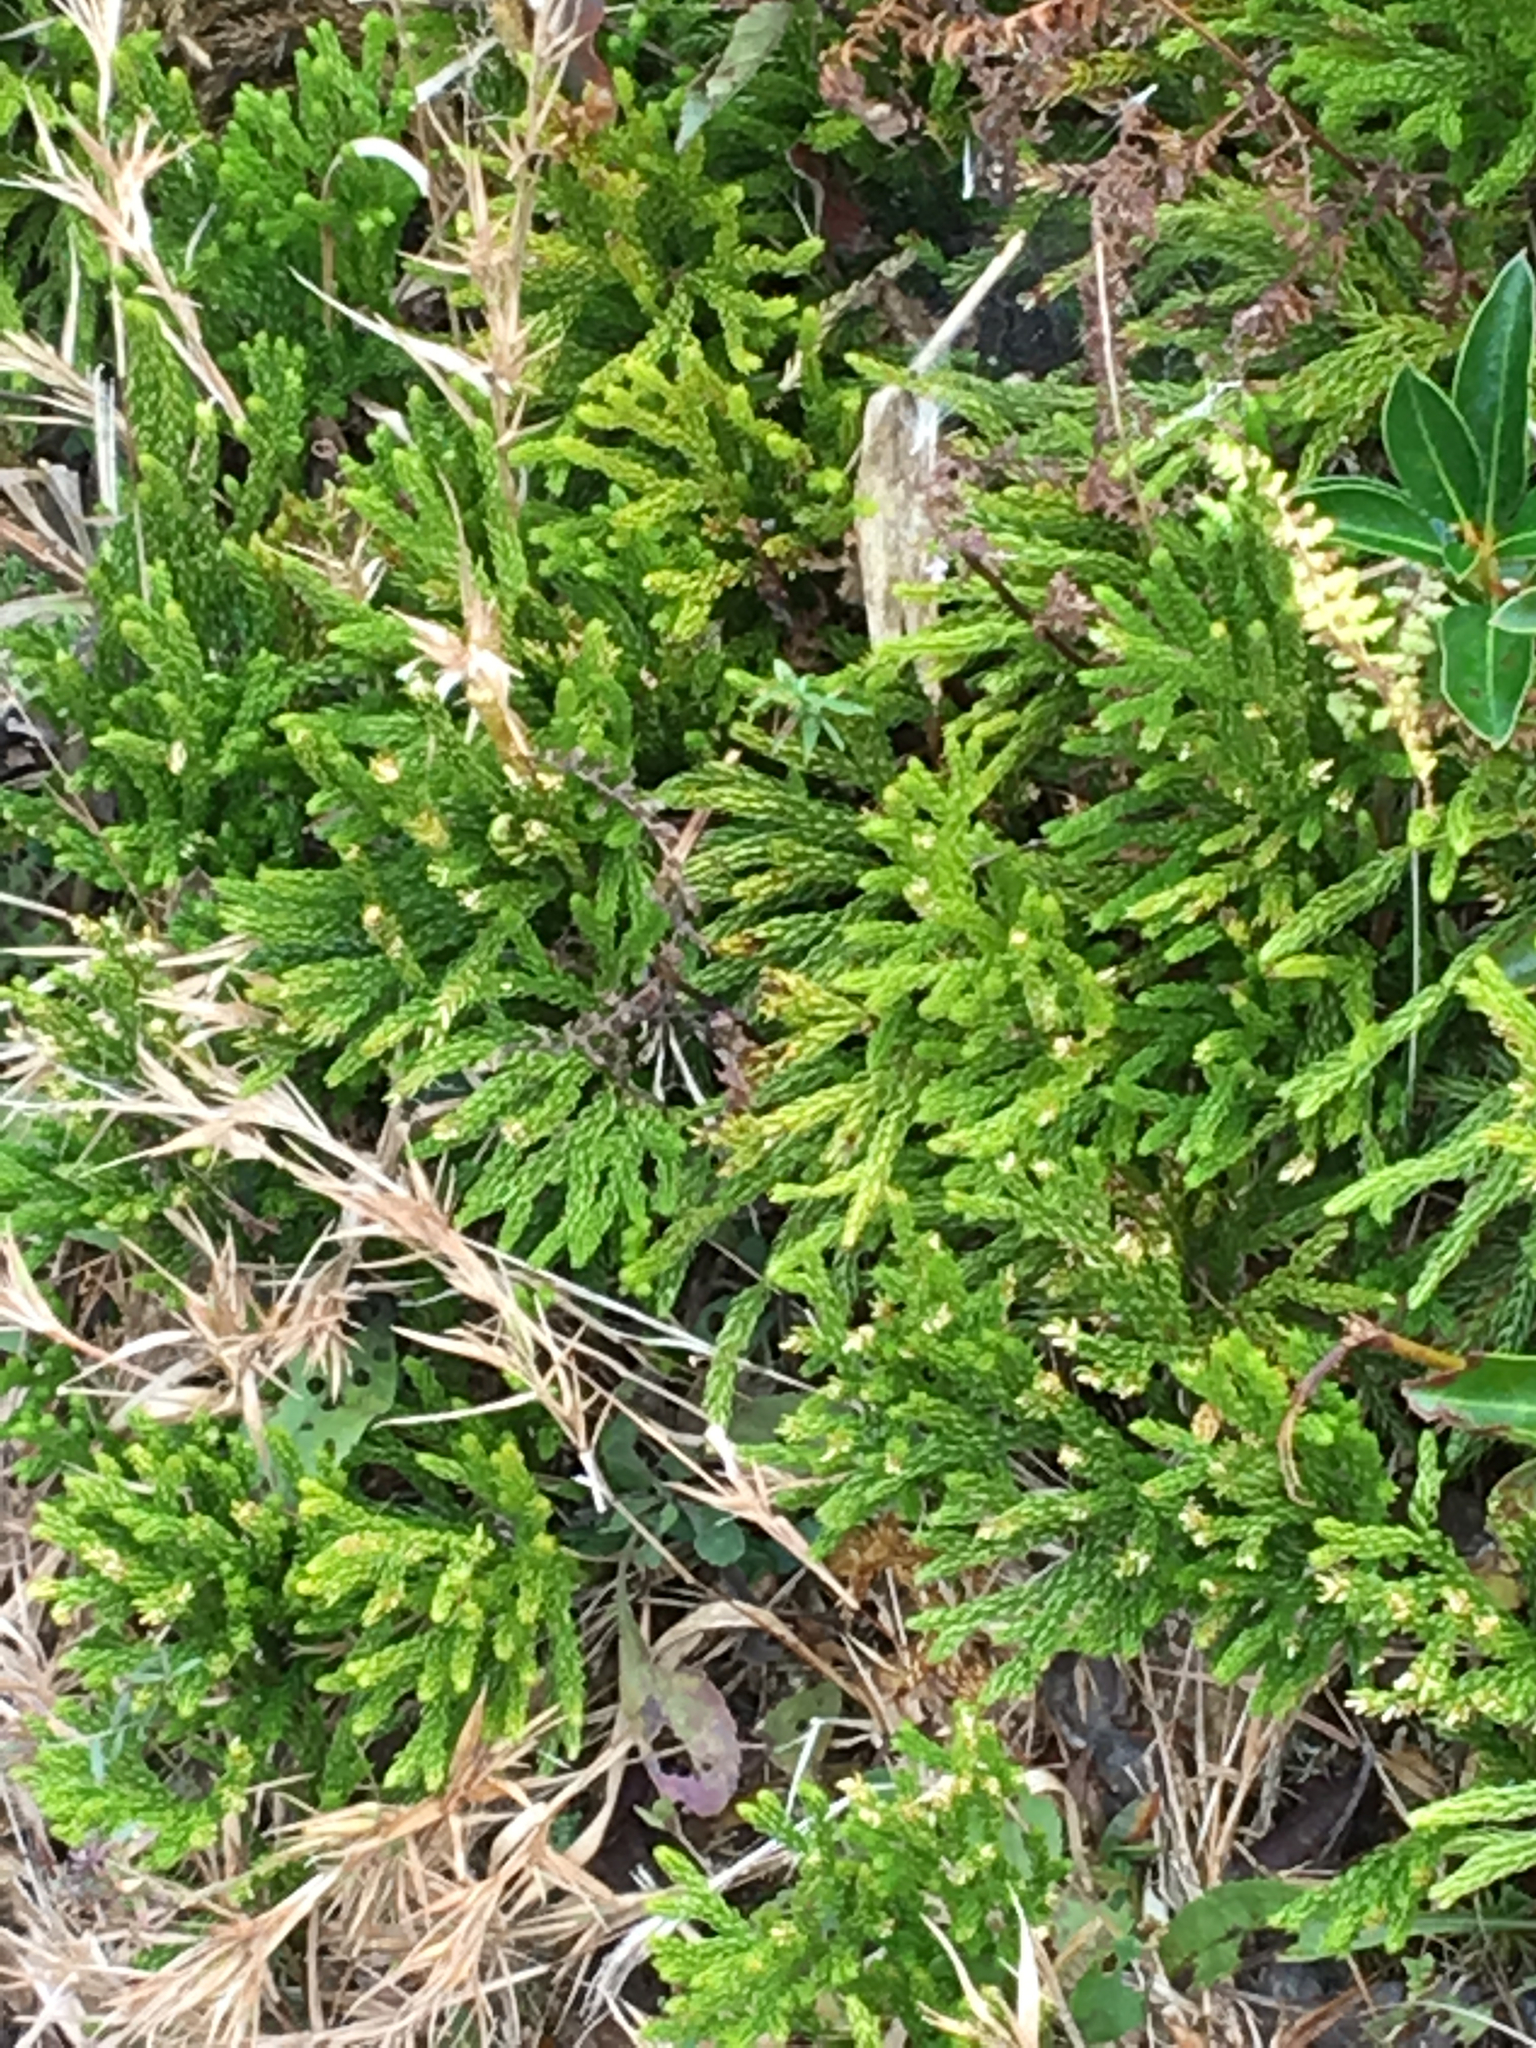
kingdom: Plantae
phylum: Tracheophyta
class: Lycopodiopsida
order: Lycopodiales
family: Lycopodiaceae
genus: Dendrolycopodium
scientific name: Dendrolycopodium hickeyi
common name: Hickey's clubmoss
